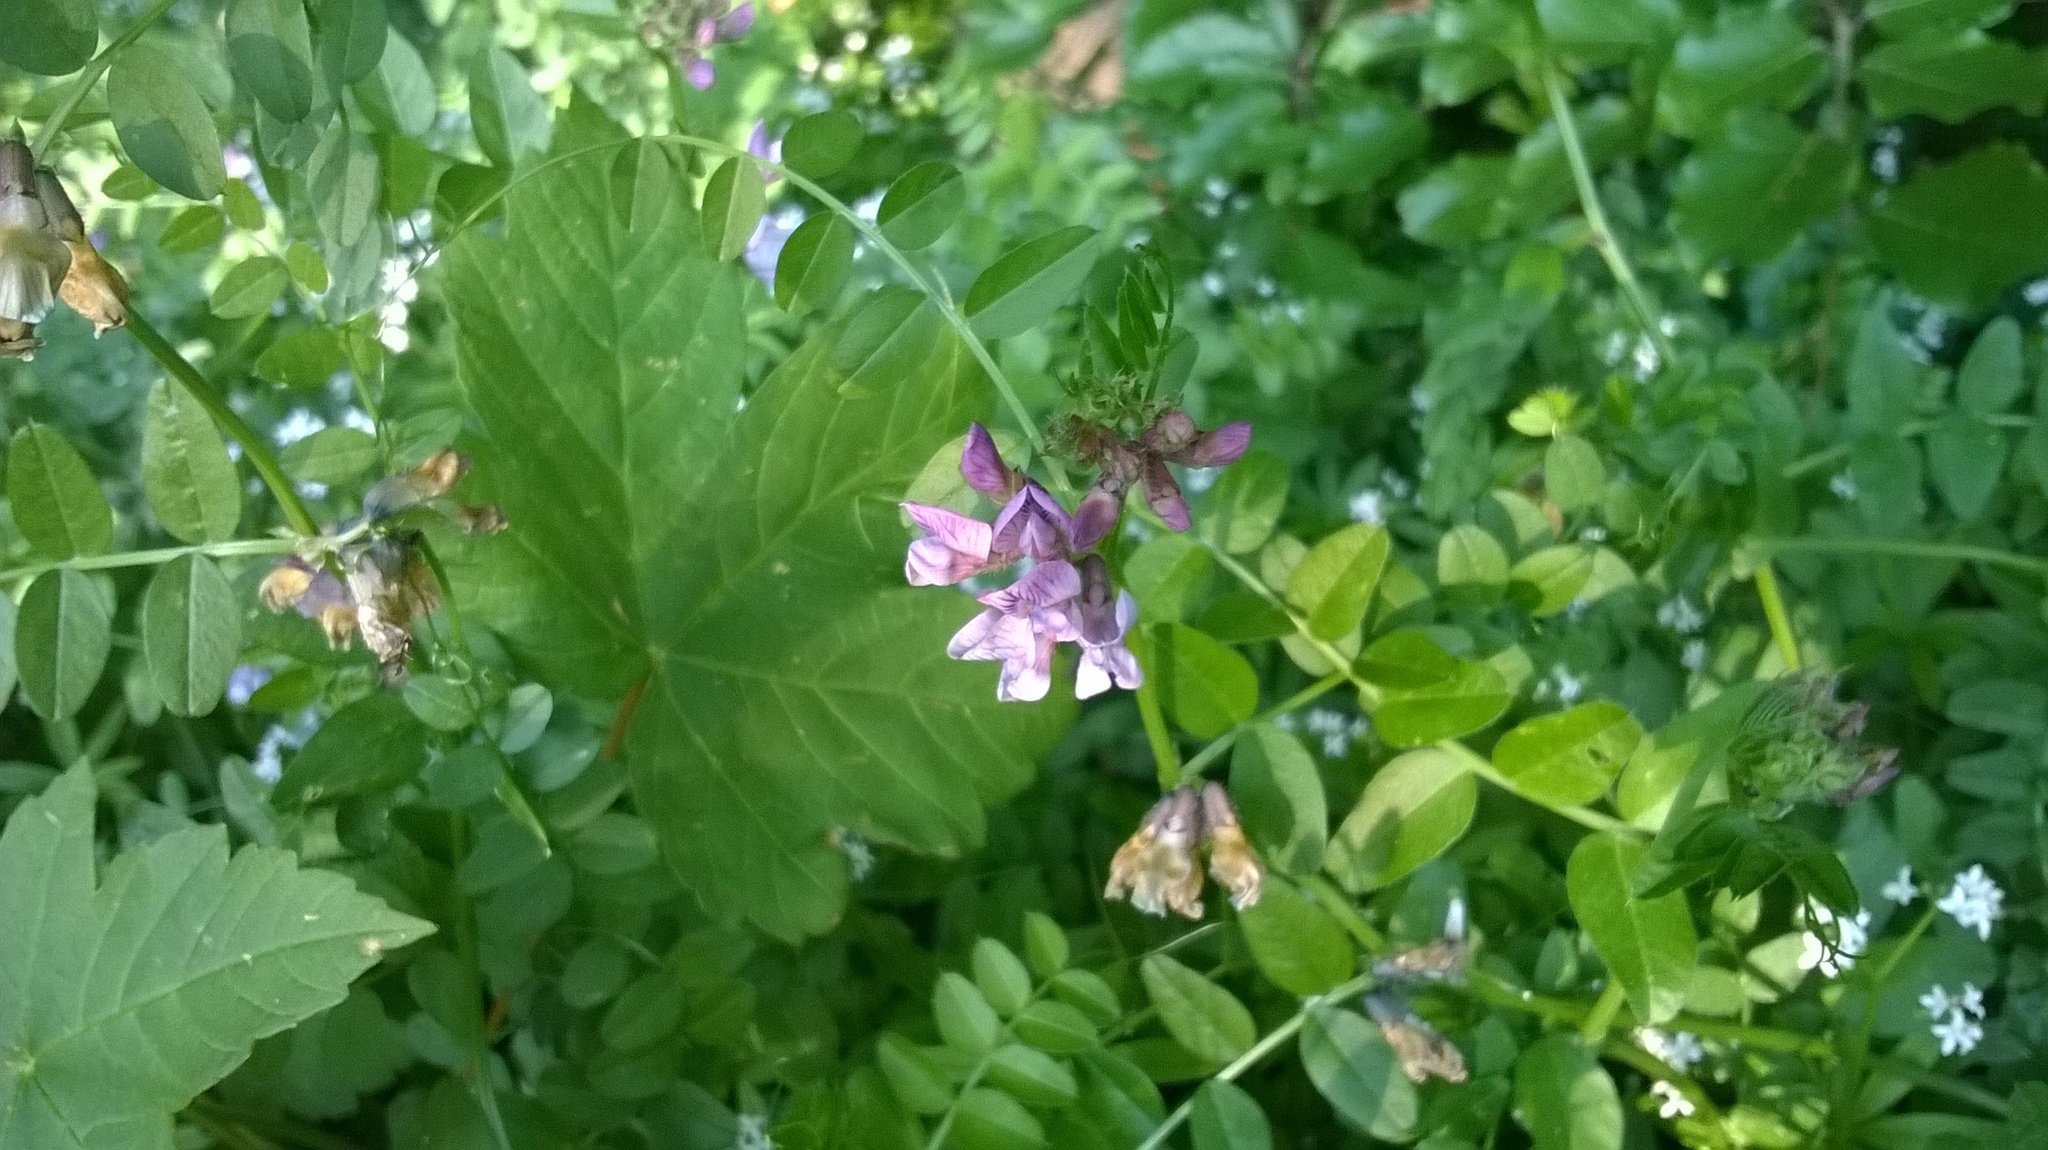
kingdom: Plantae
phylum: Tracheophyta
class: Magnoliopsida
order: Fabales
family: Fabaceae
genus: Vicia
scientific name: Vicia sepium
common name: Bush vetch
